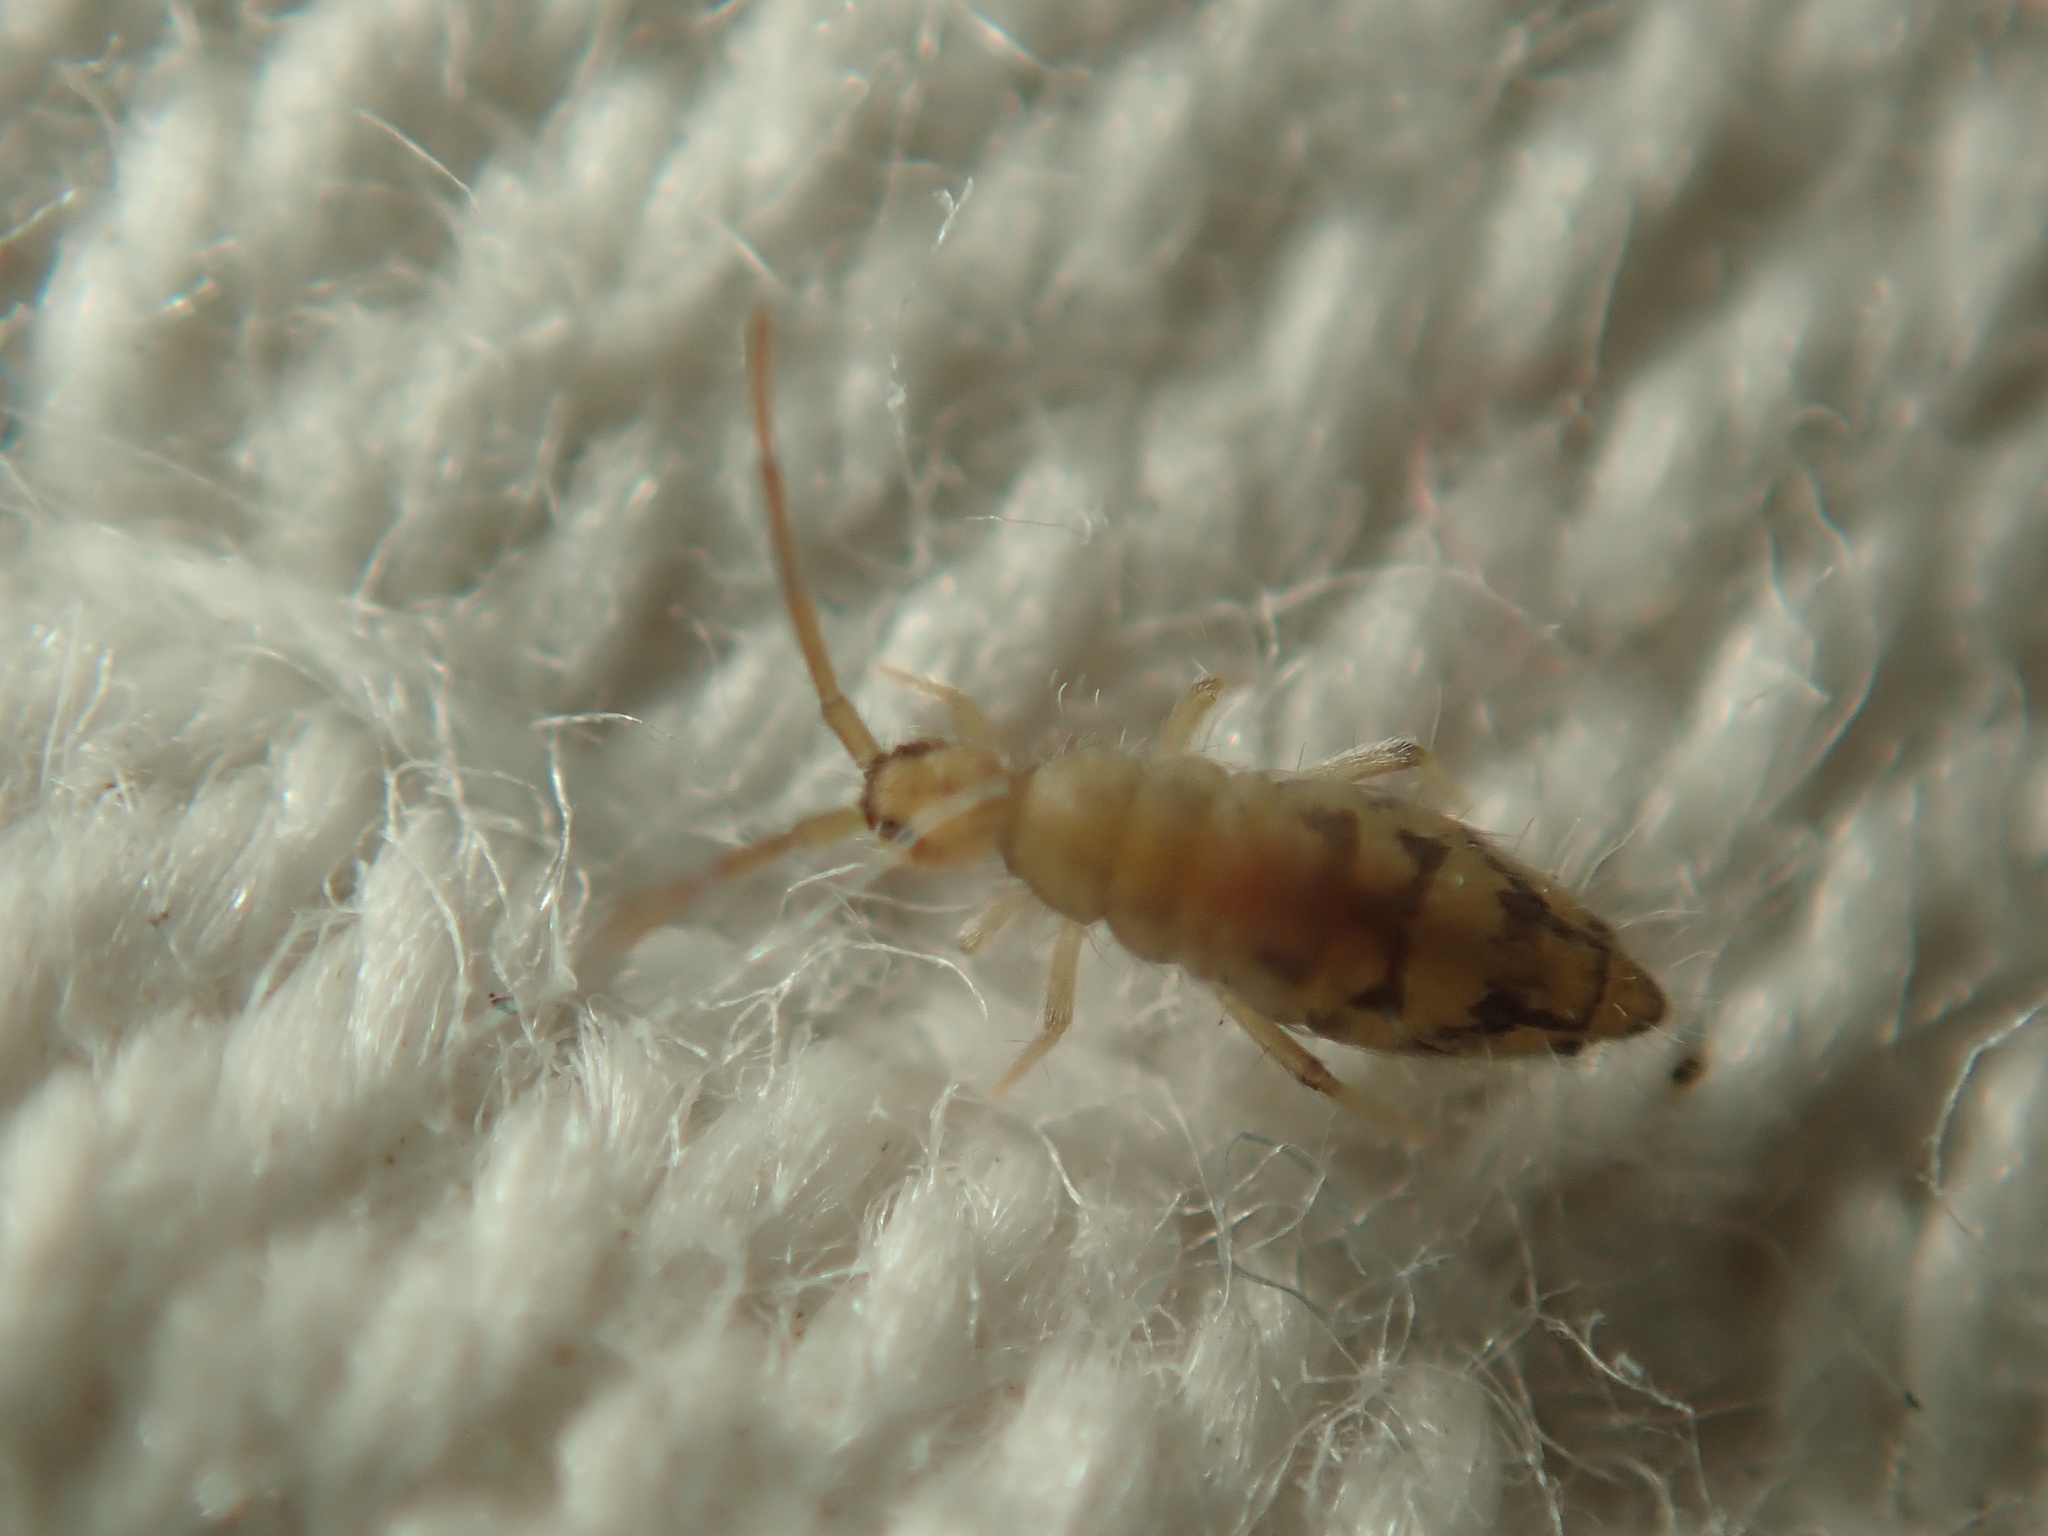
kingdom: Animalia
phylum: Arthropoda
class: Collembola
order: Entomobryomorpha
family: Entomobryidae
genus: Entomobrya
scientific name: Entomobrya nivalis
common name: Cosmopolitan springtail
